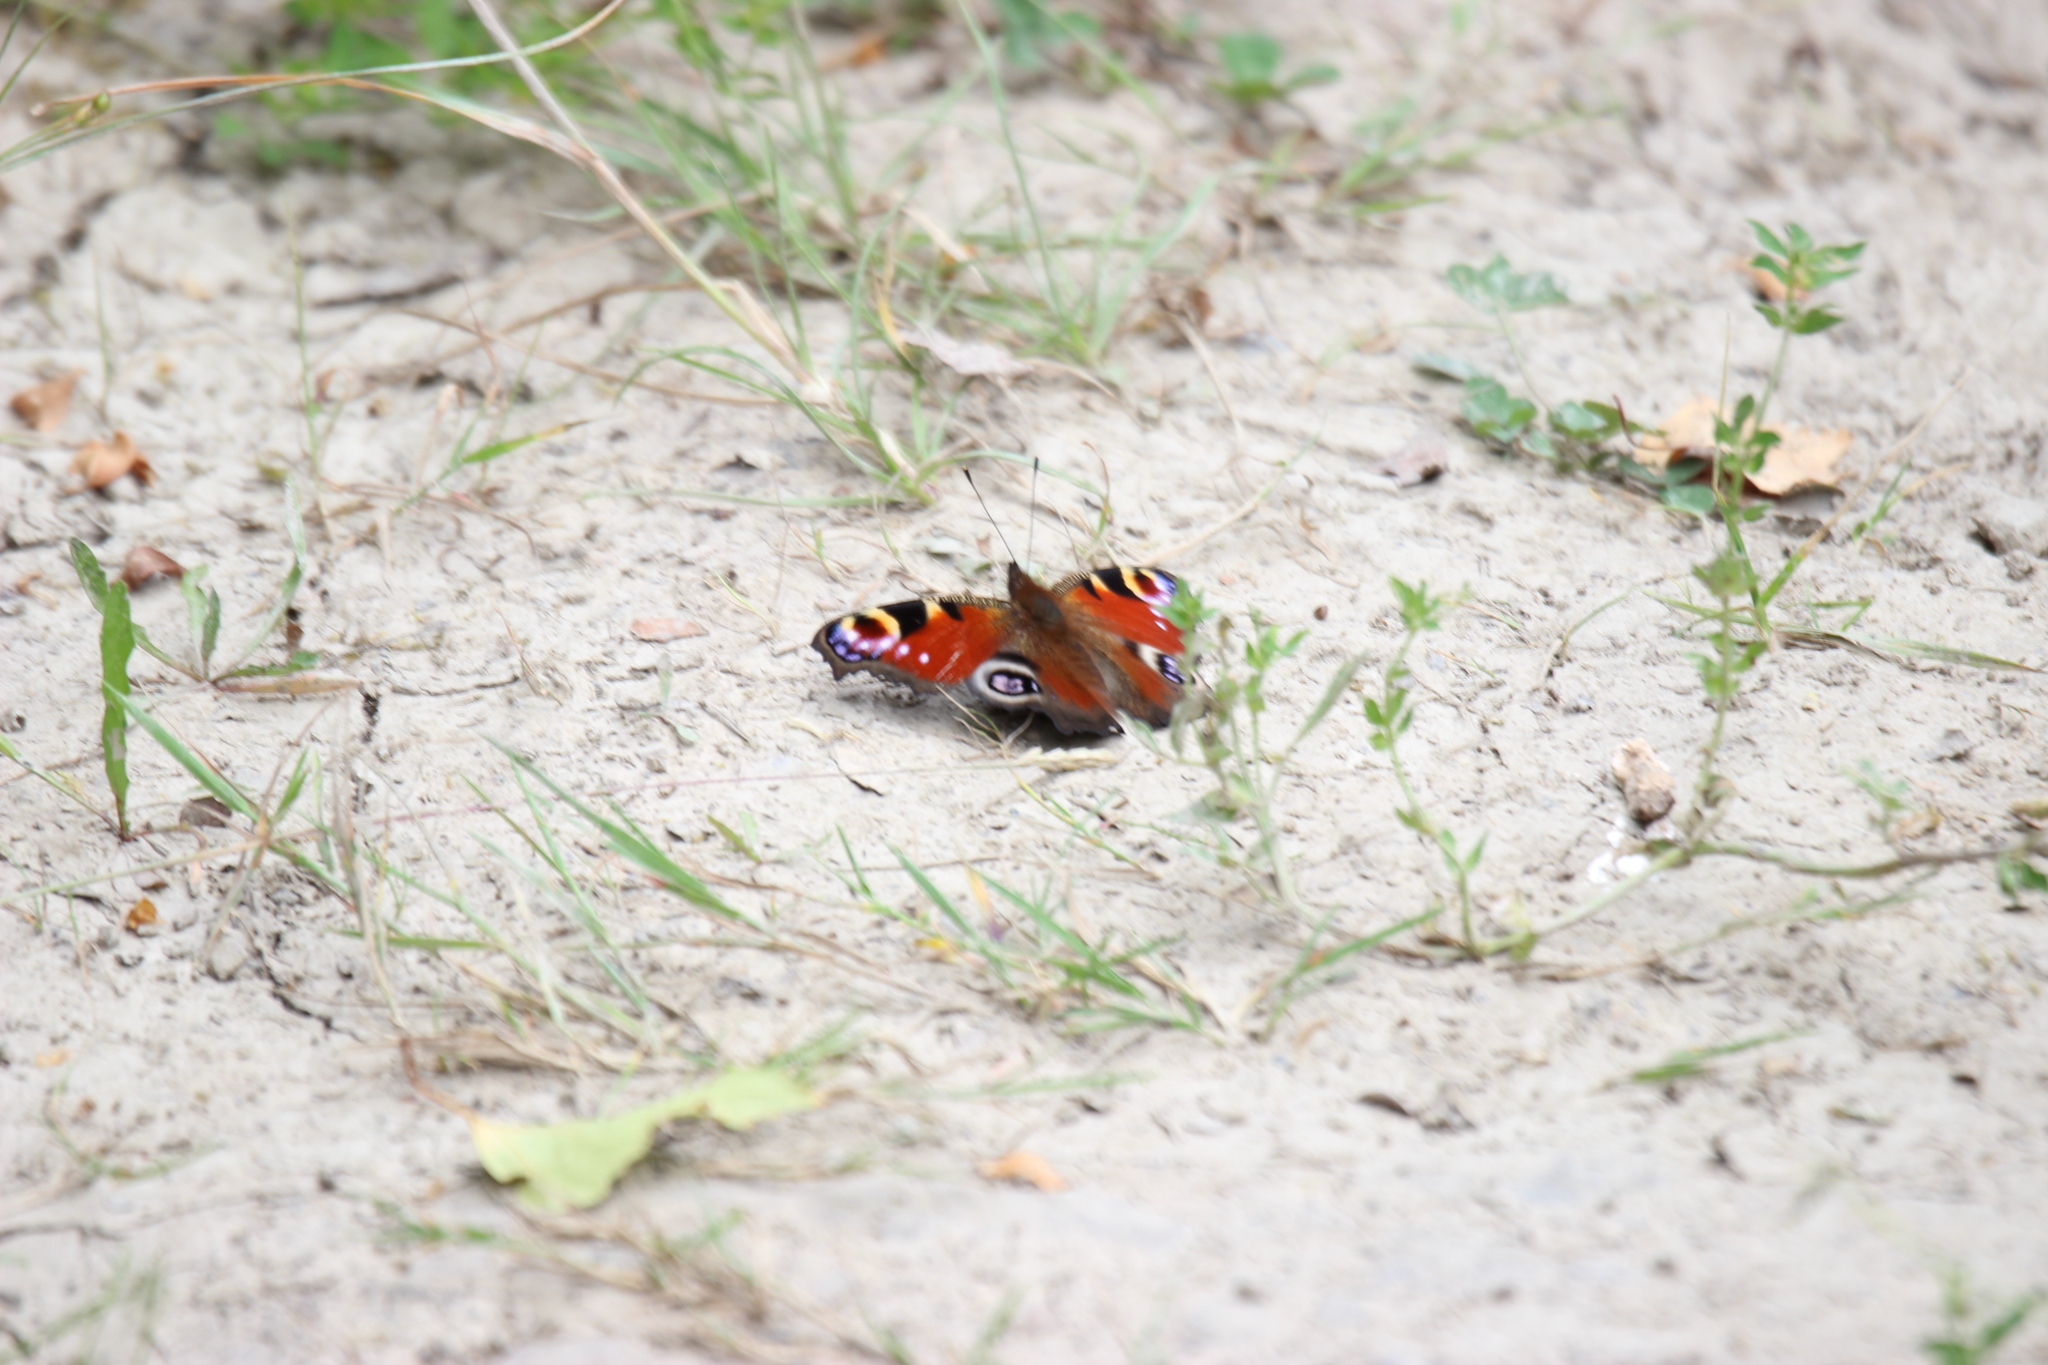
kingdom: Animalia
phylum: Arthropoda
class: Insecta
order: Lepidoptera
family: Nymphalidae
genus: Aglais
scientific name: Aglais io
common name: Peacock
